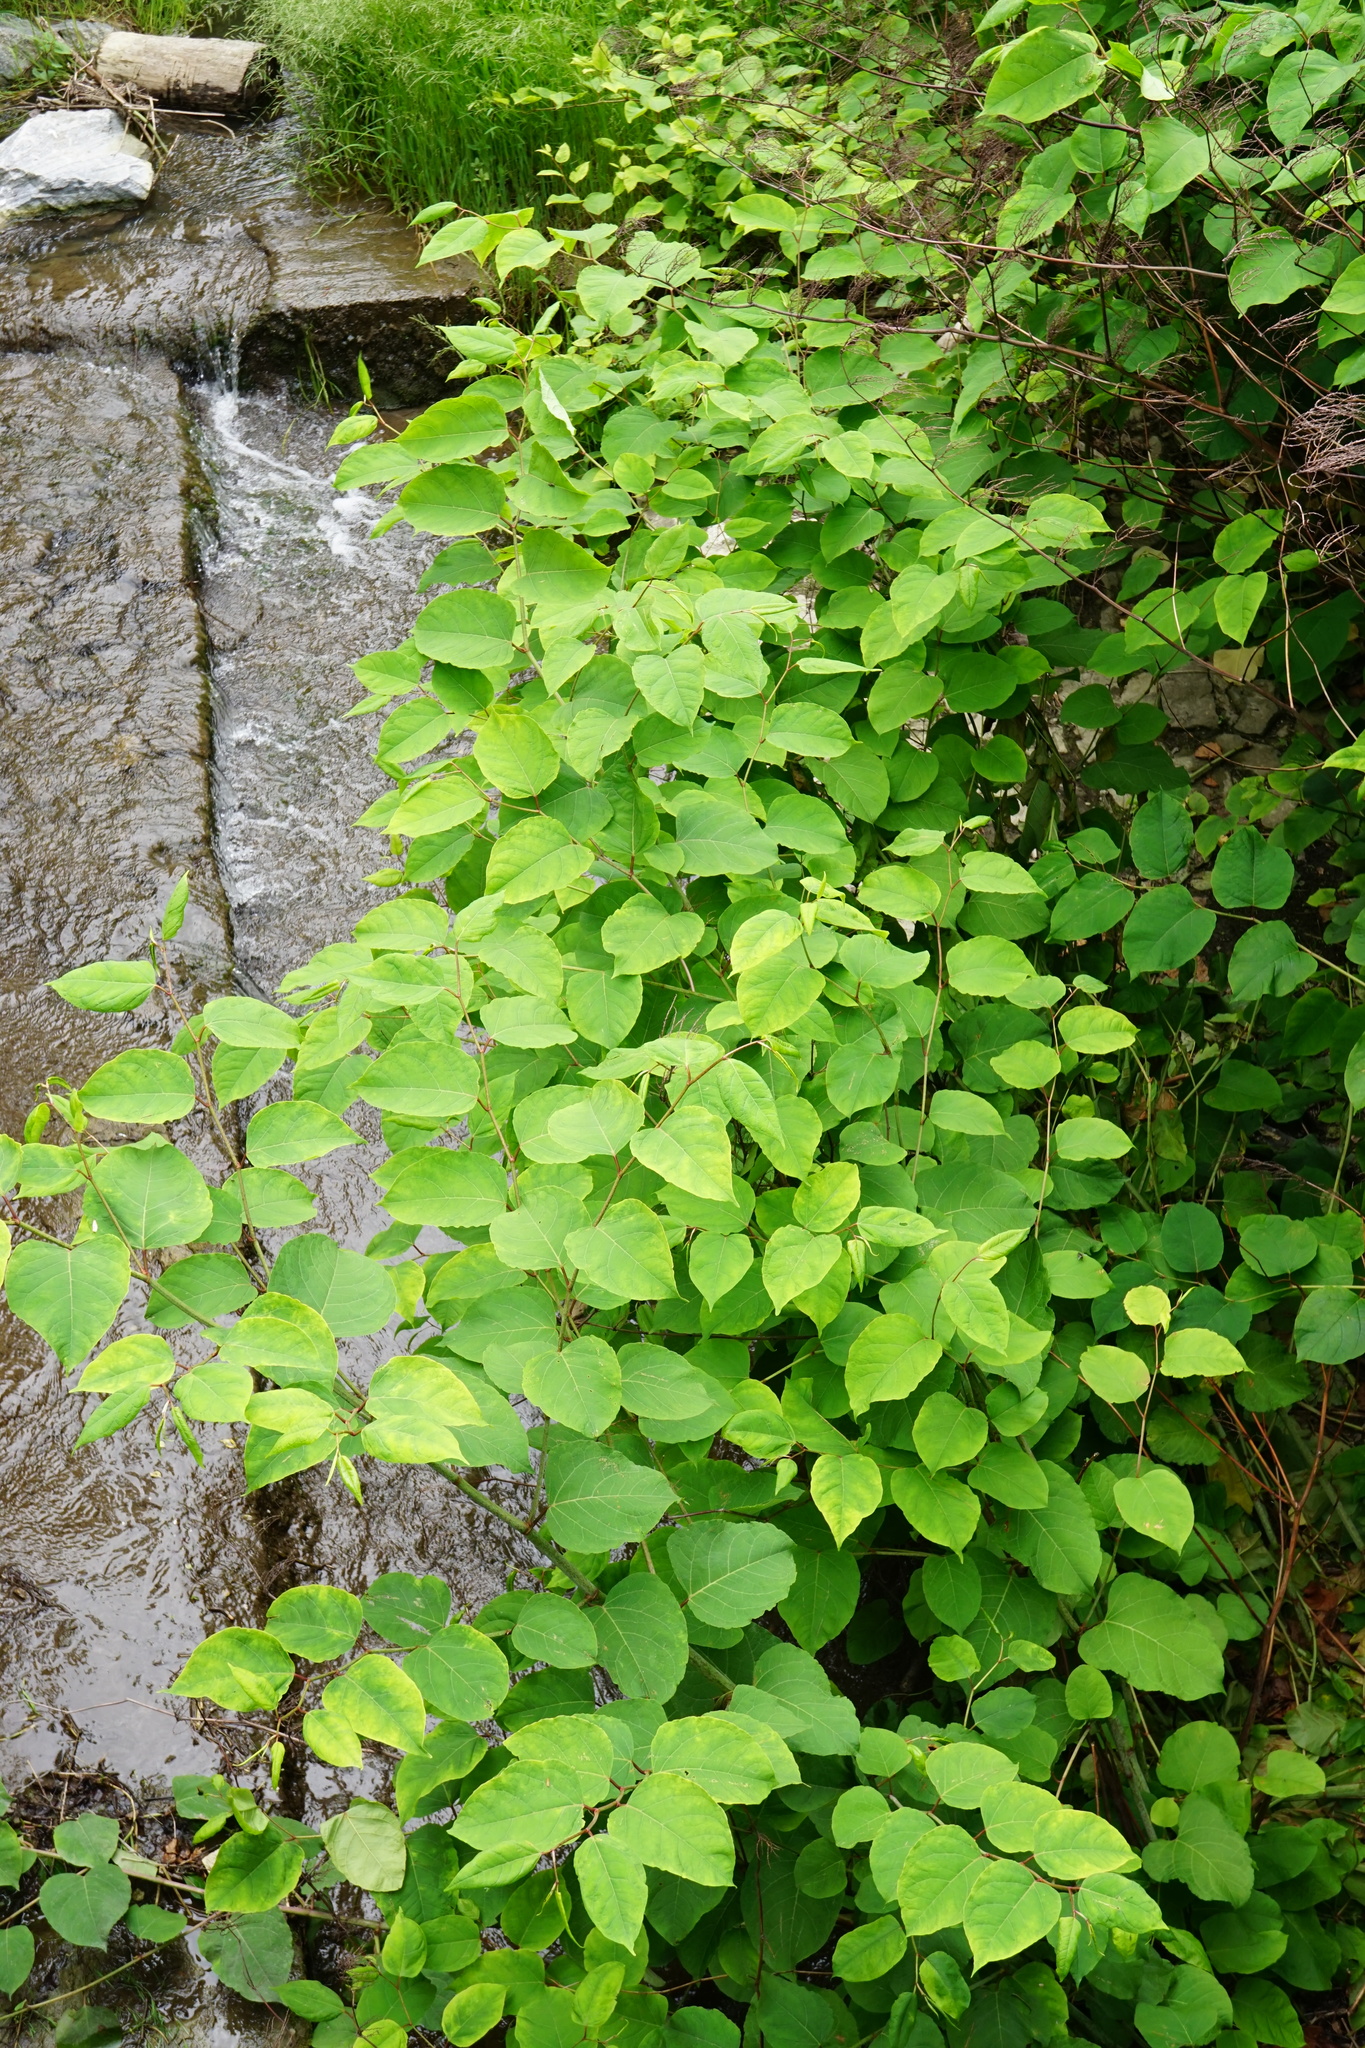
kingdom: Plantae
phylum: Tracheophyta
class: Magnoliopsida
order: Caryophyllales
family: Polygonaceae
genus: Reynoutria
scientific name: Reynoutria bohemica
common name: Bohemian knotweed
